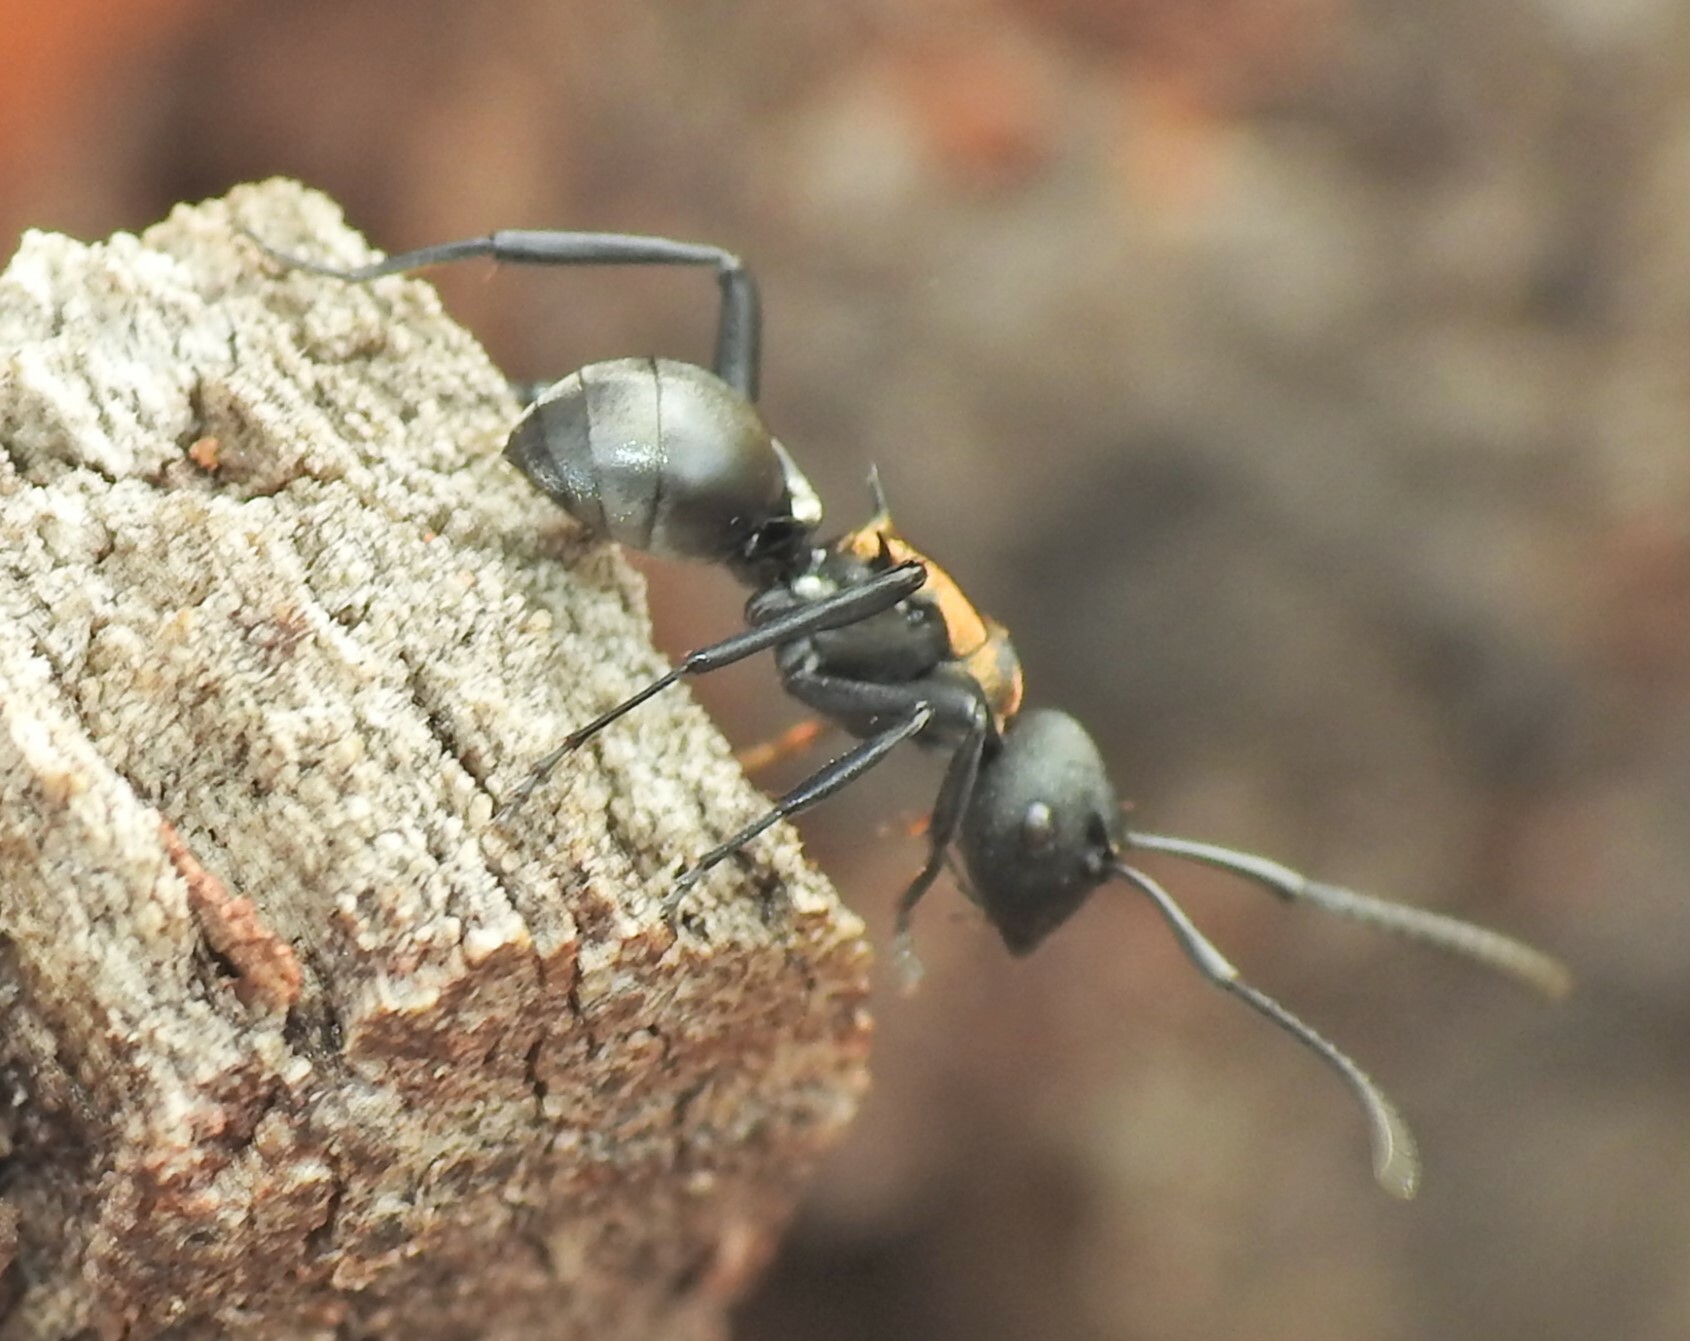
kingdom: Animalia
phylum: Arthropoda
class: Insecta
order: Hymenoptera
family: Formicidae
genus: Polyrhachis
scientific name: Polyrhachis ornata
